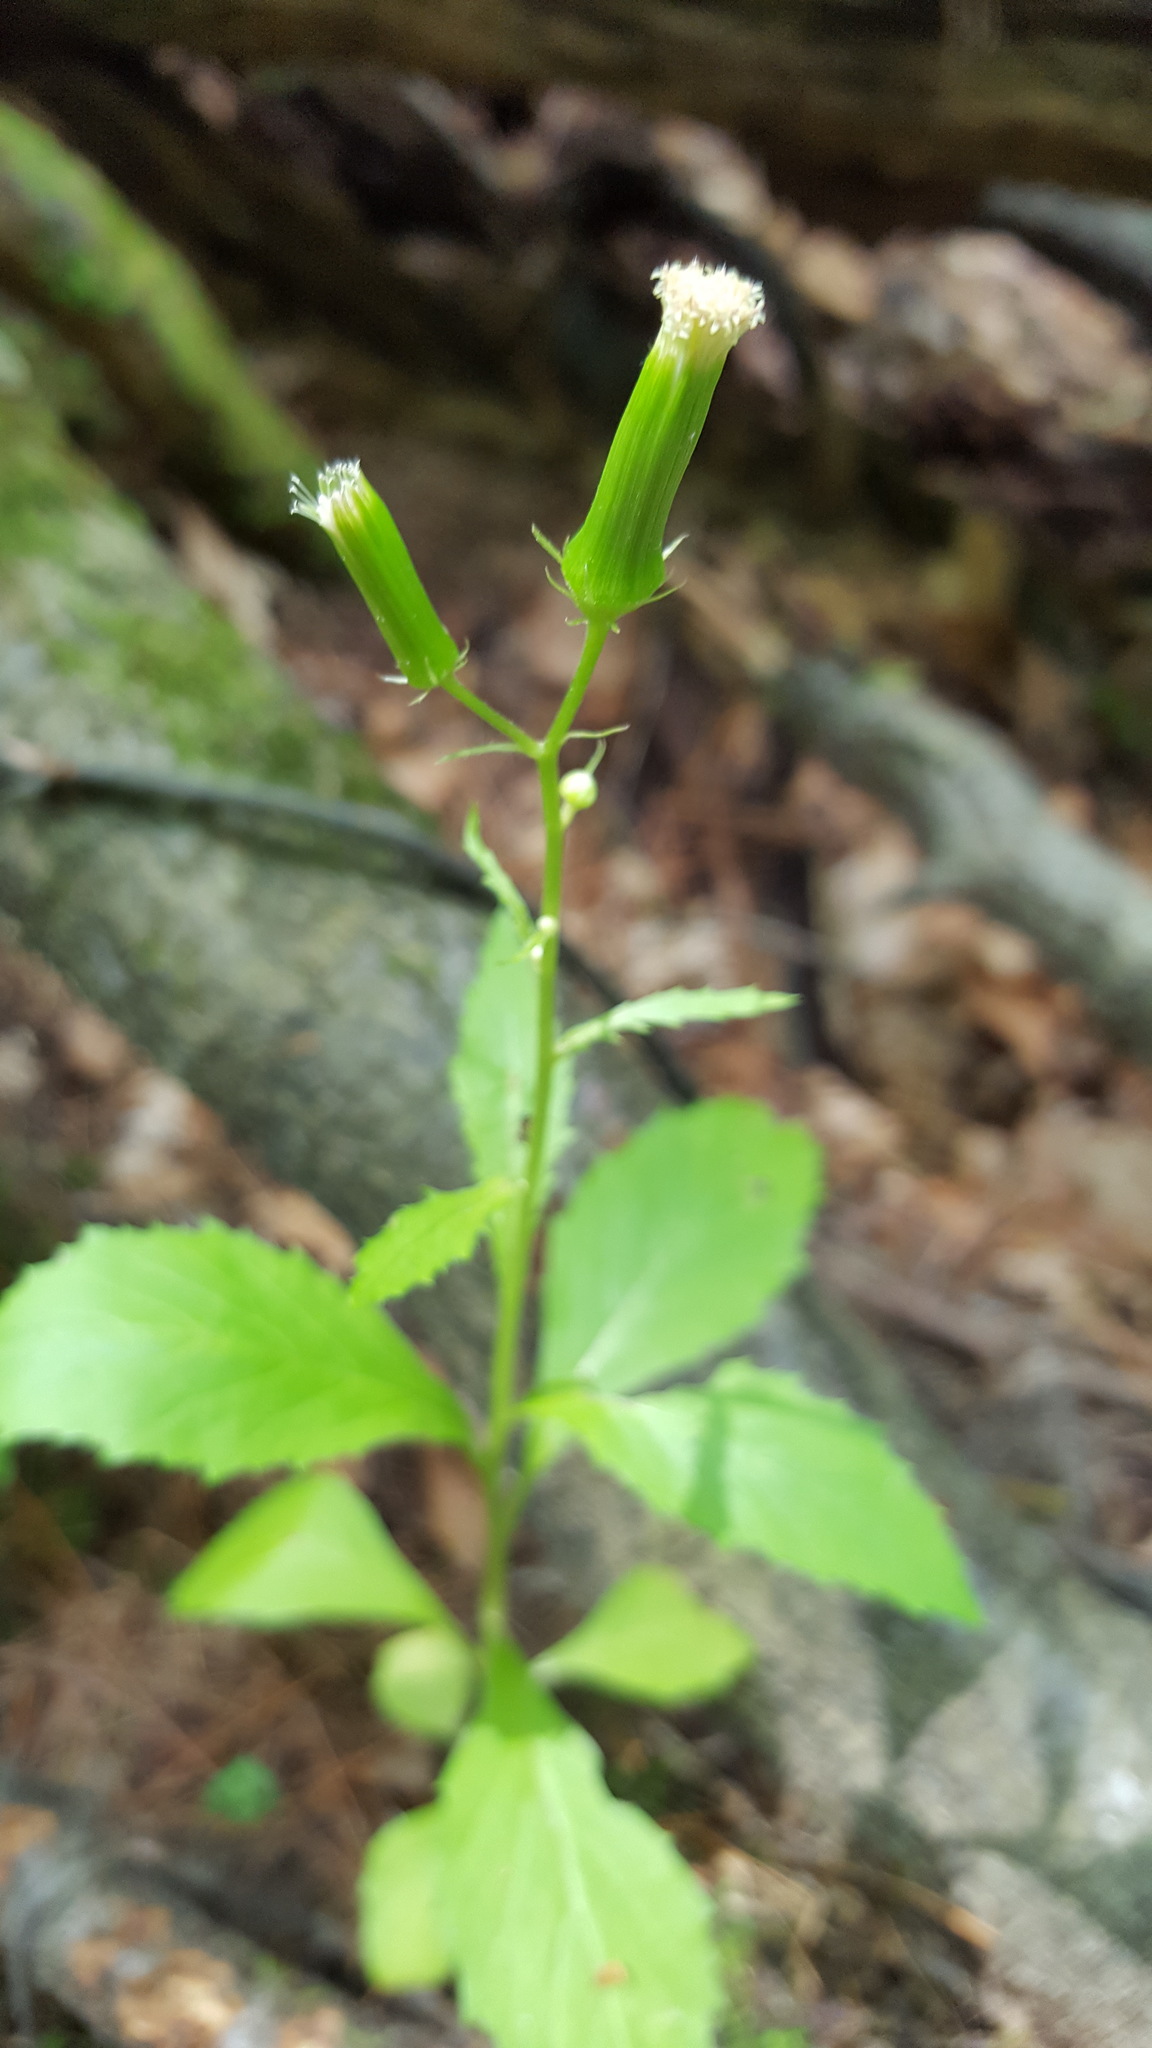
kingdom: Plantae
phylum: Tracheophyta
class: Magnoliopsida
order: Asterales
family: Asteraceae
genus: Erechtites
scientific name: Erechtites hieraciifolius
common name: American burnweed
